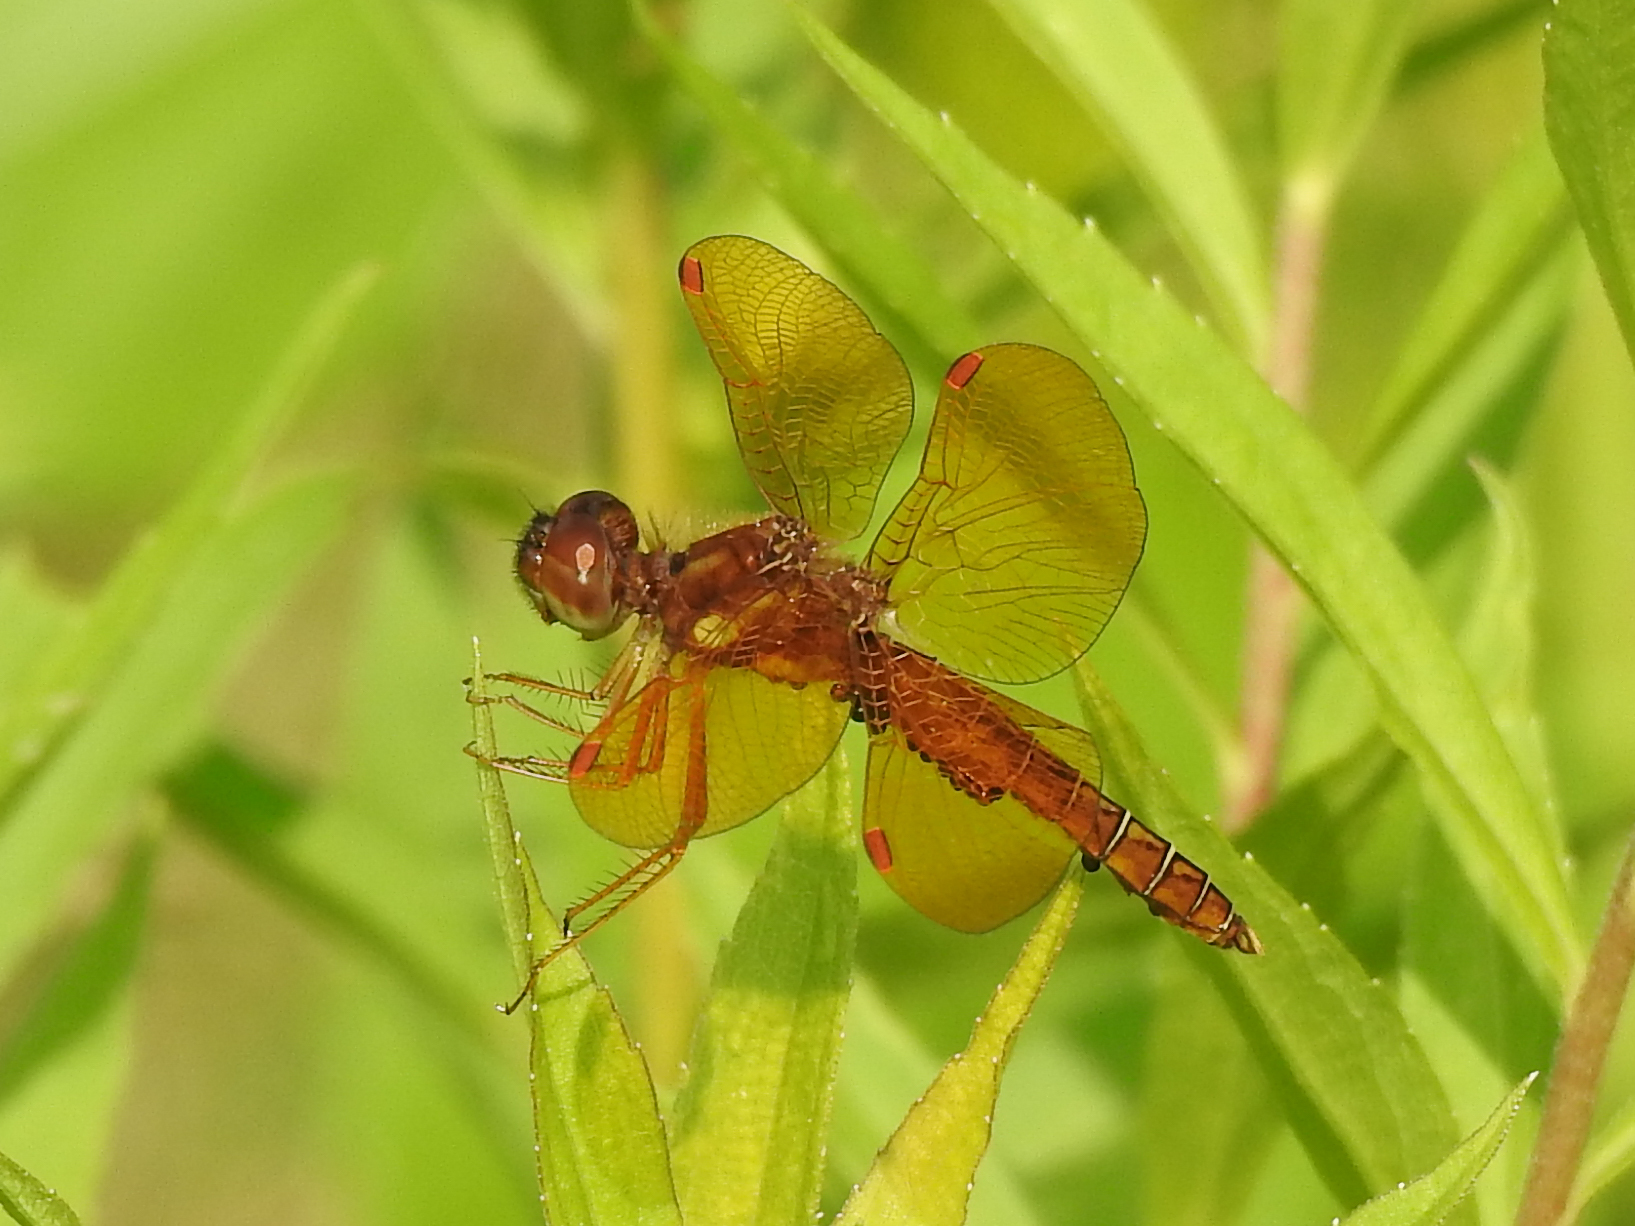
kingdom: Animalia
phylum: Arthropoda
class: Insecta
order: Odonata
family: Libellulidae
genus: Perithemis
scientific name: Perithemis tenera
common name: Eastern amberwing
